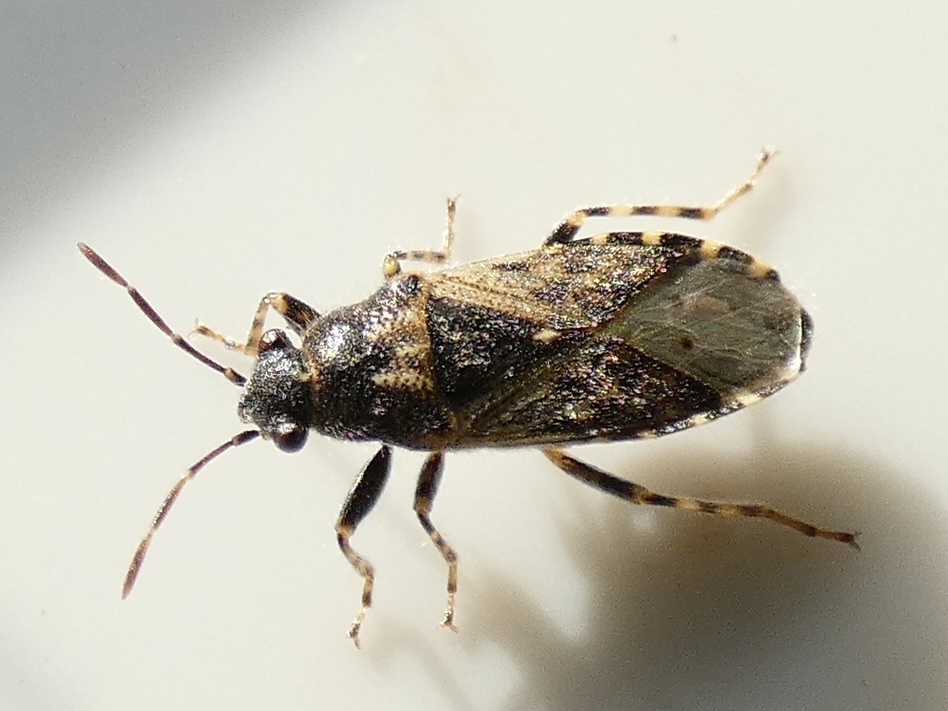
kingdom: Animalia
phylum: Arthropoda
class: Insecta
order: Hemiptera
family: Heterogastridae
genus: Heterogaster
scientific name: Heterogaster urticae
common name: Seed bug
